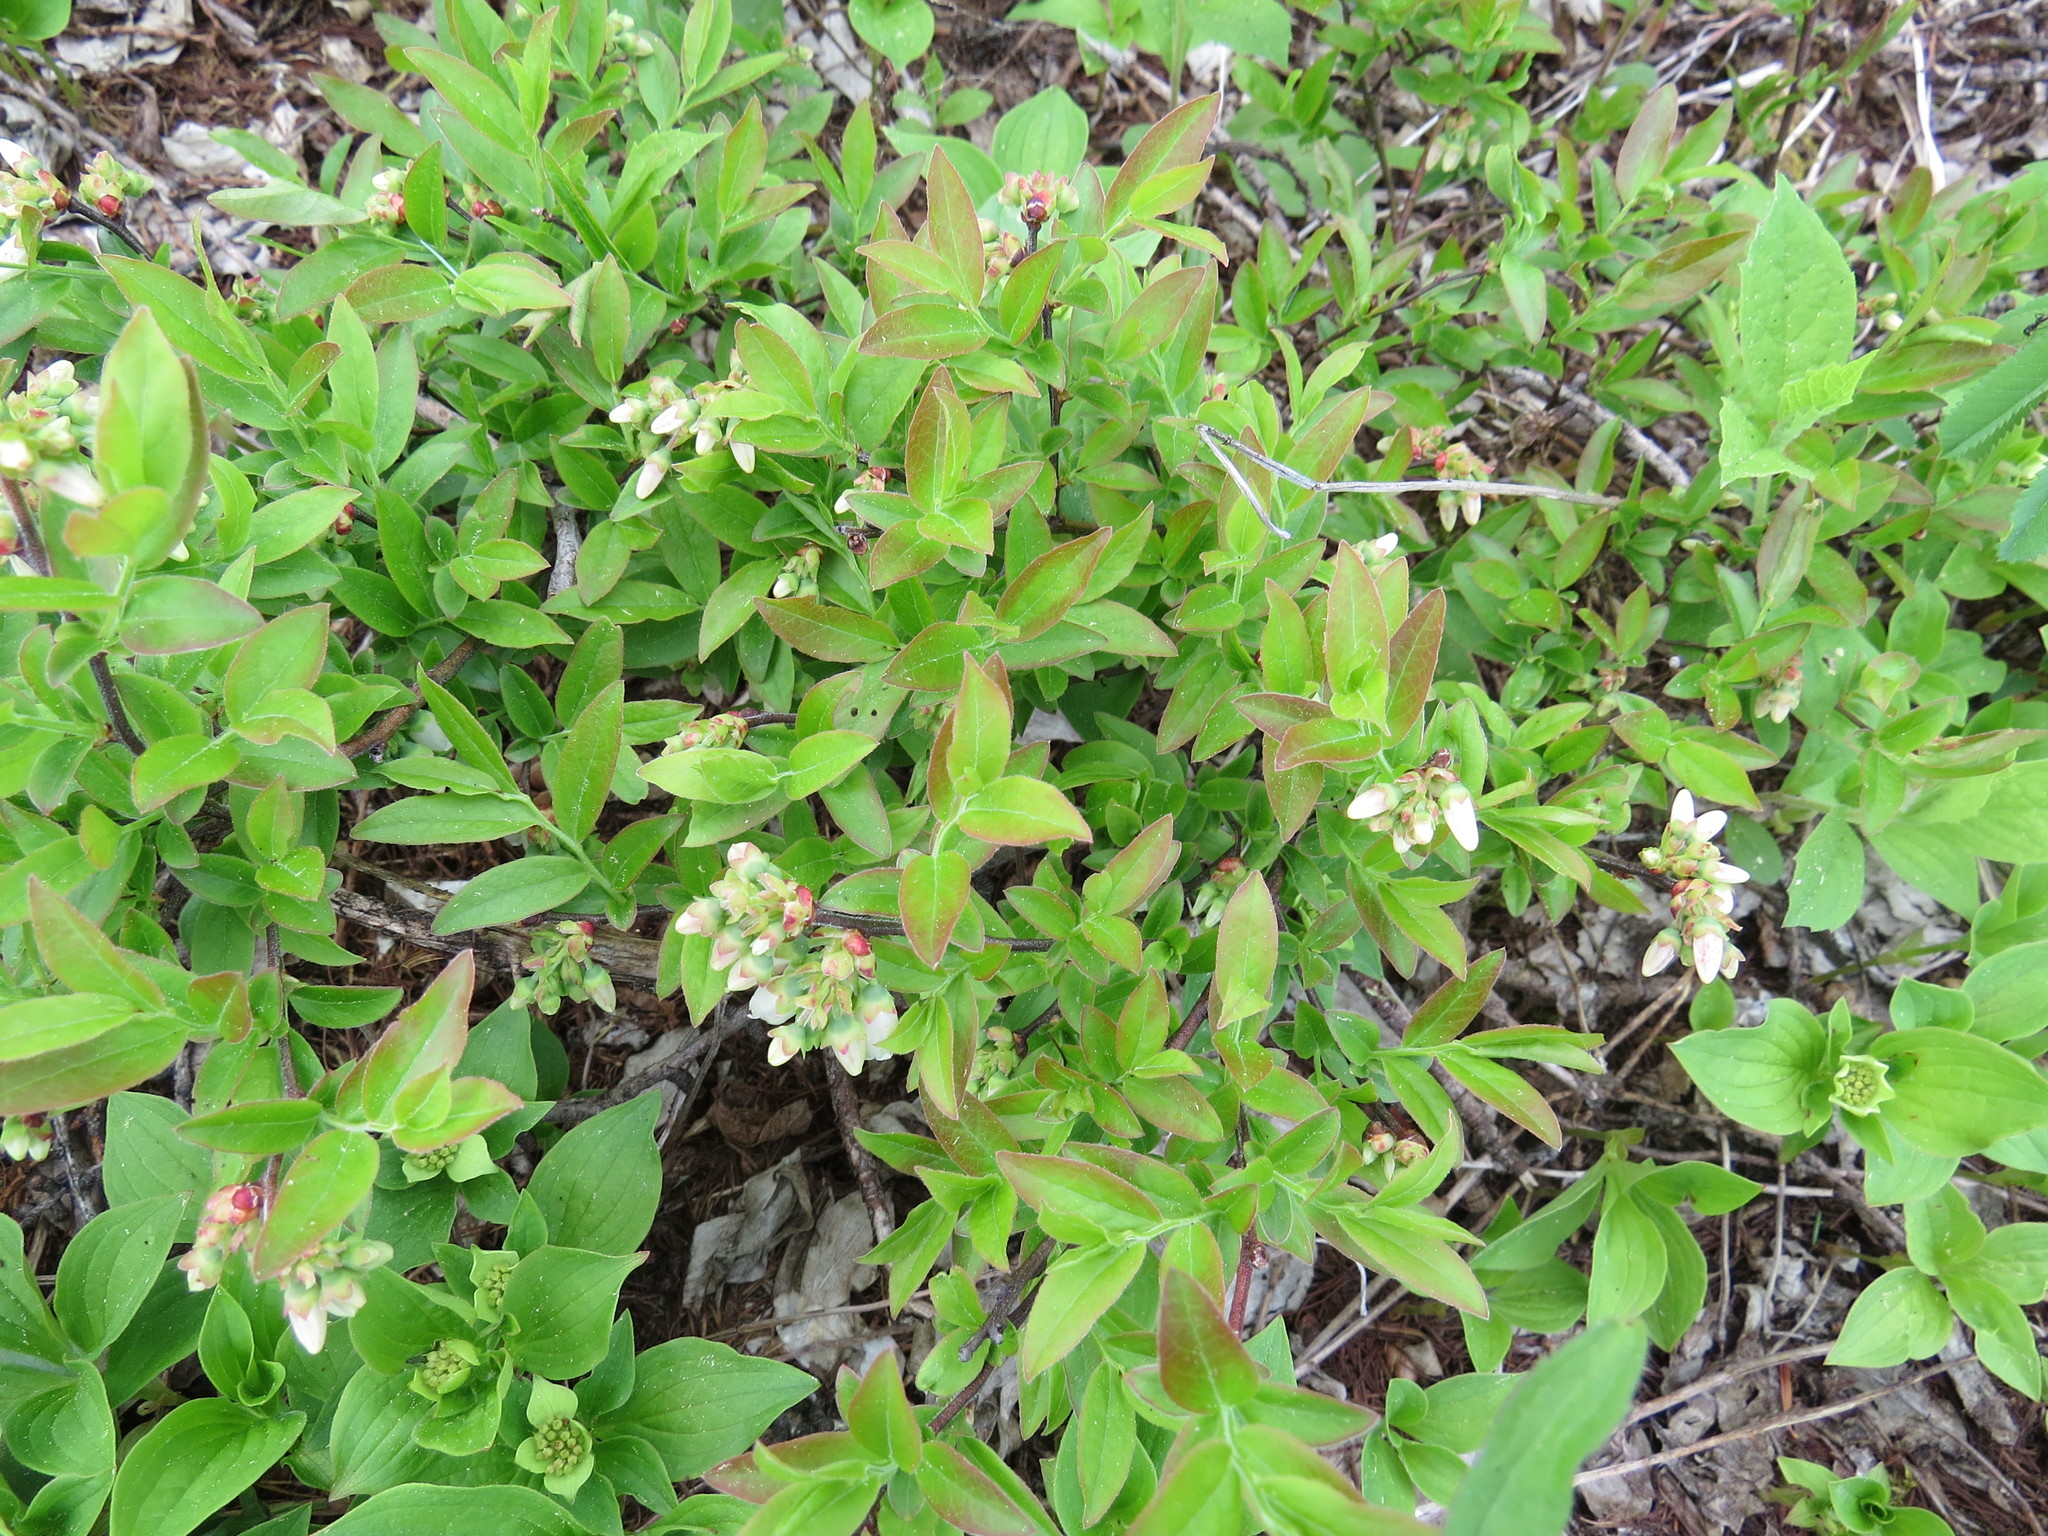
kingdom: Plantae
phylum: Tracheophyta
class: Magnoliopsida
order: Ericales
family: Ericaceae
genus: Vaccinium
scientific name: Vaccinium angustifolium
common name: Early lowbush blueberry
